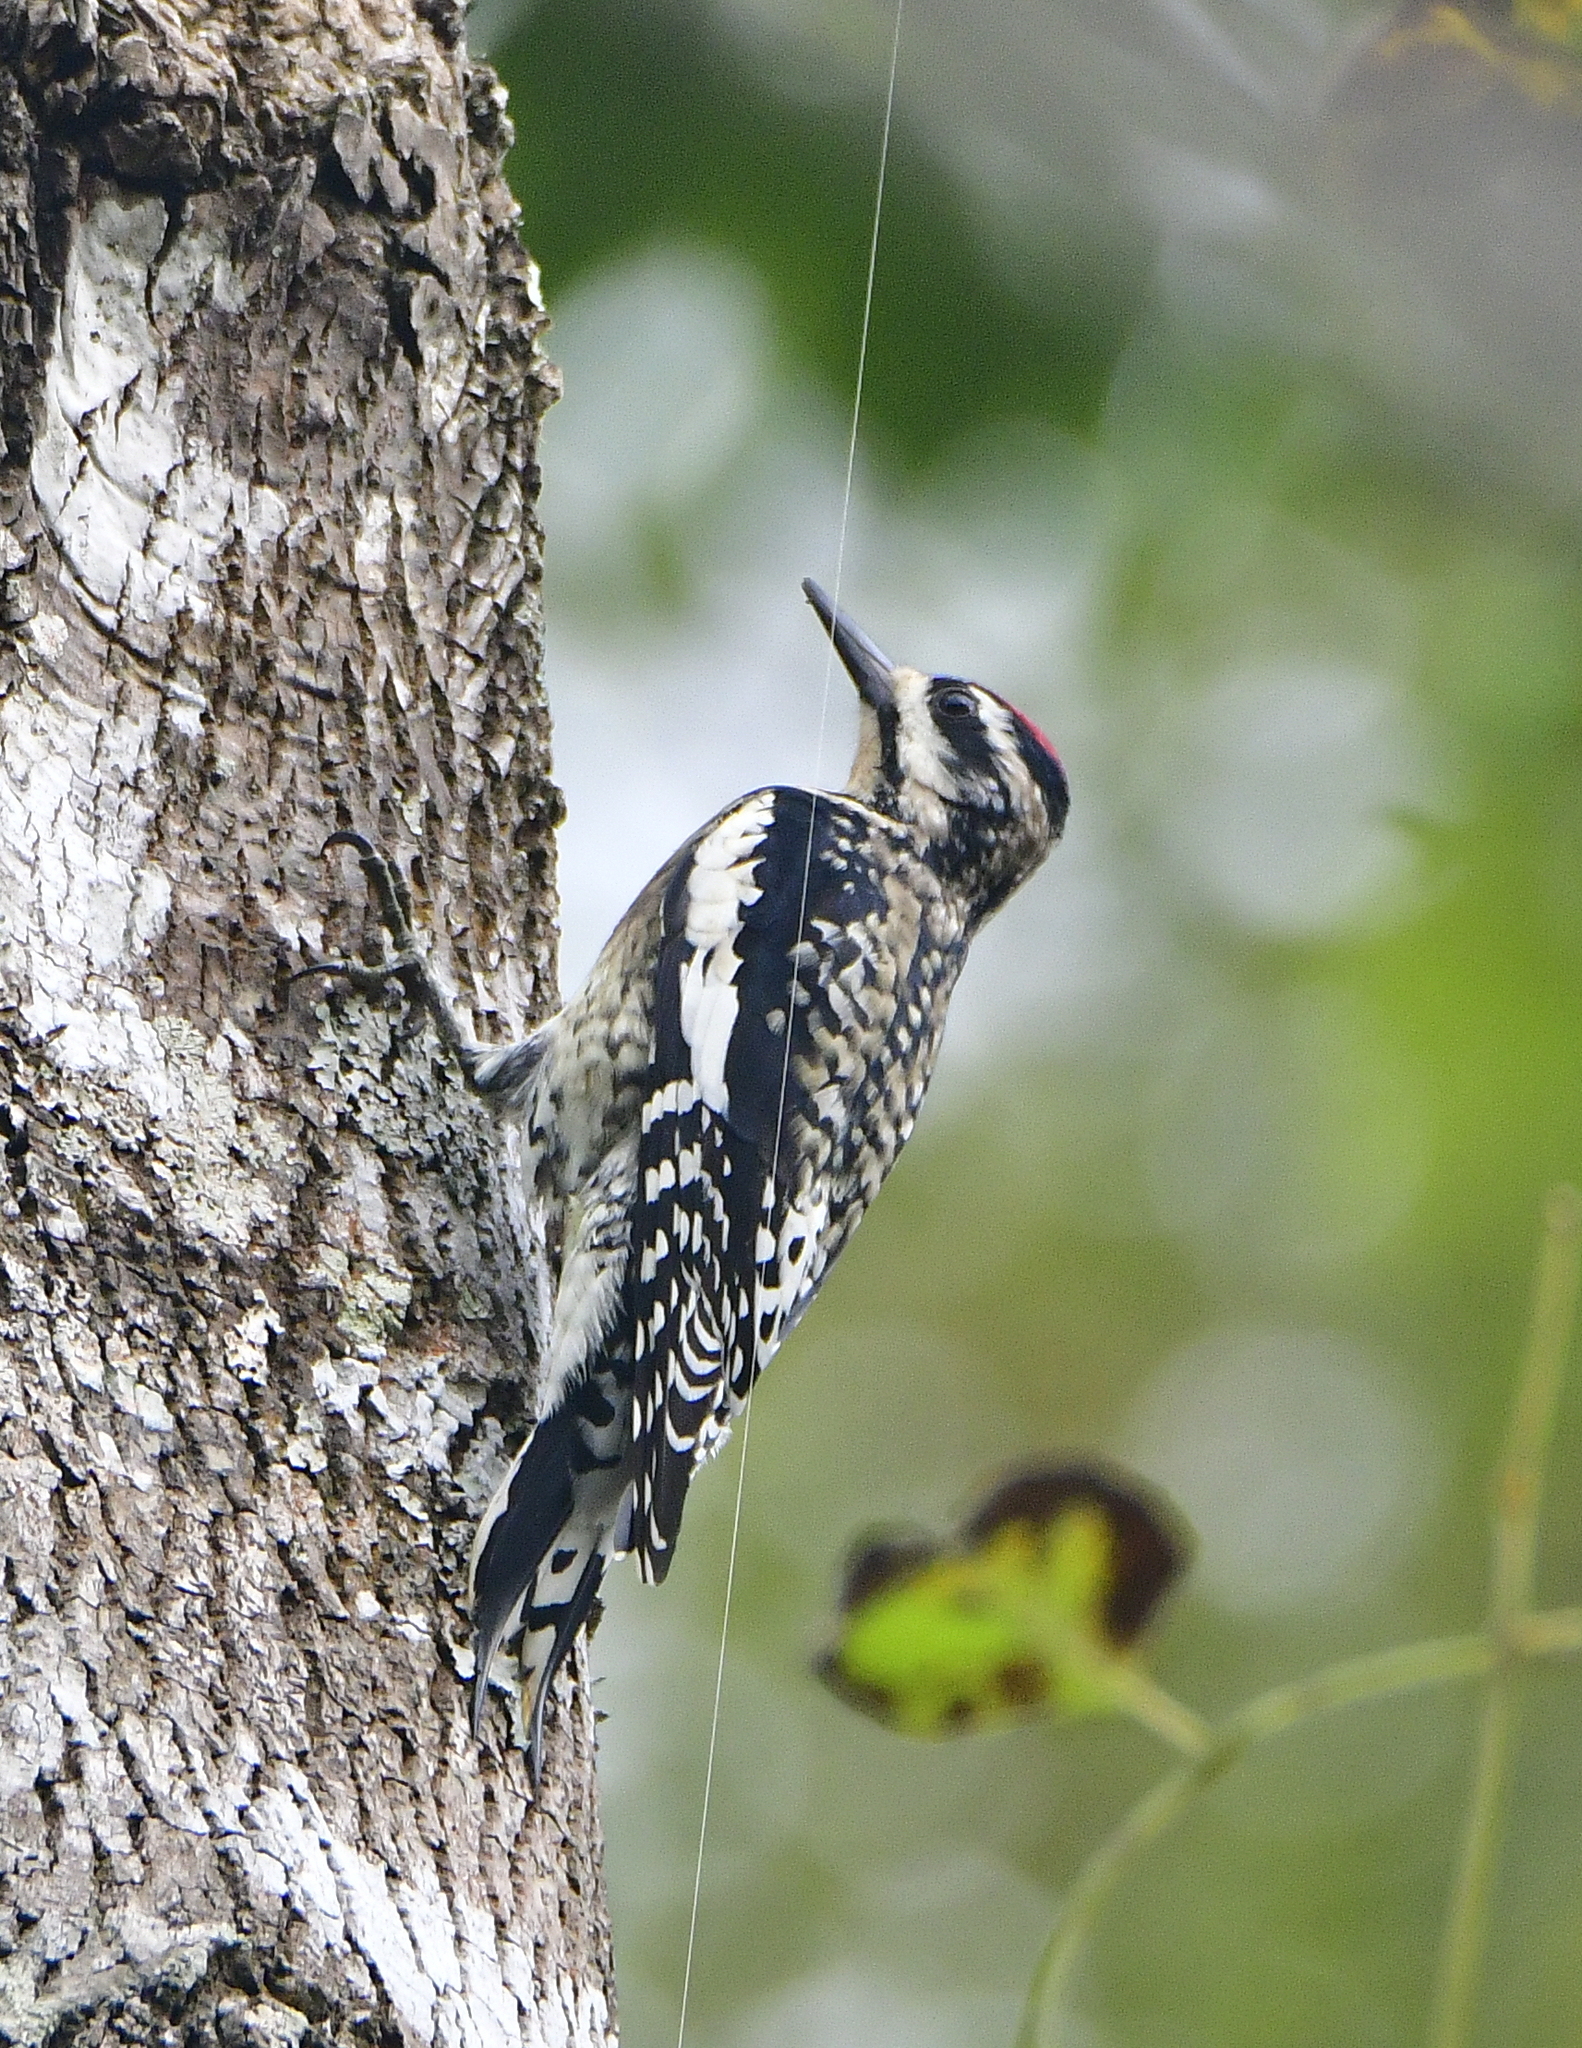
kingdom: Animalia
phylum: Chordata
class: Aves
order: Piciformes
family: Picidae
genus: Sphyrapicus
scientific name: Sphyrapicus varius
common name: Yellow-bellied sapsucker
